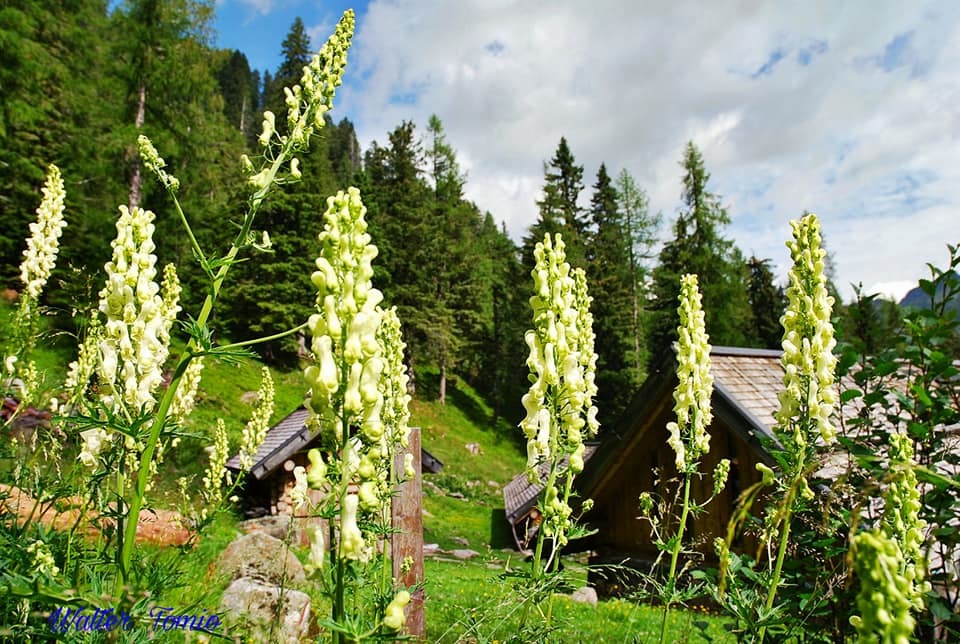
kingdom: Plantae
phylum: Tracheophyta
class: Magnoliopsida
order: Ranunculales
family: Ranunculaceae
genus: Aconitum
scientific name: Aconitum lycoctonum
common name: Wolf's-bane
